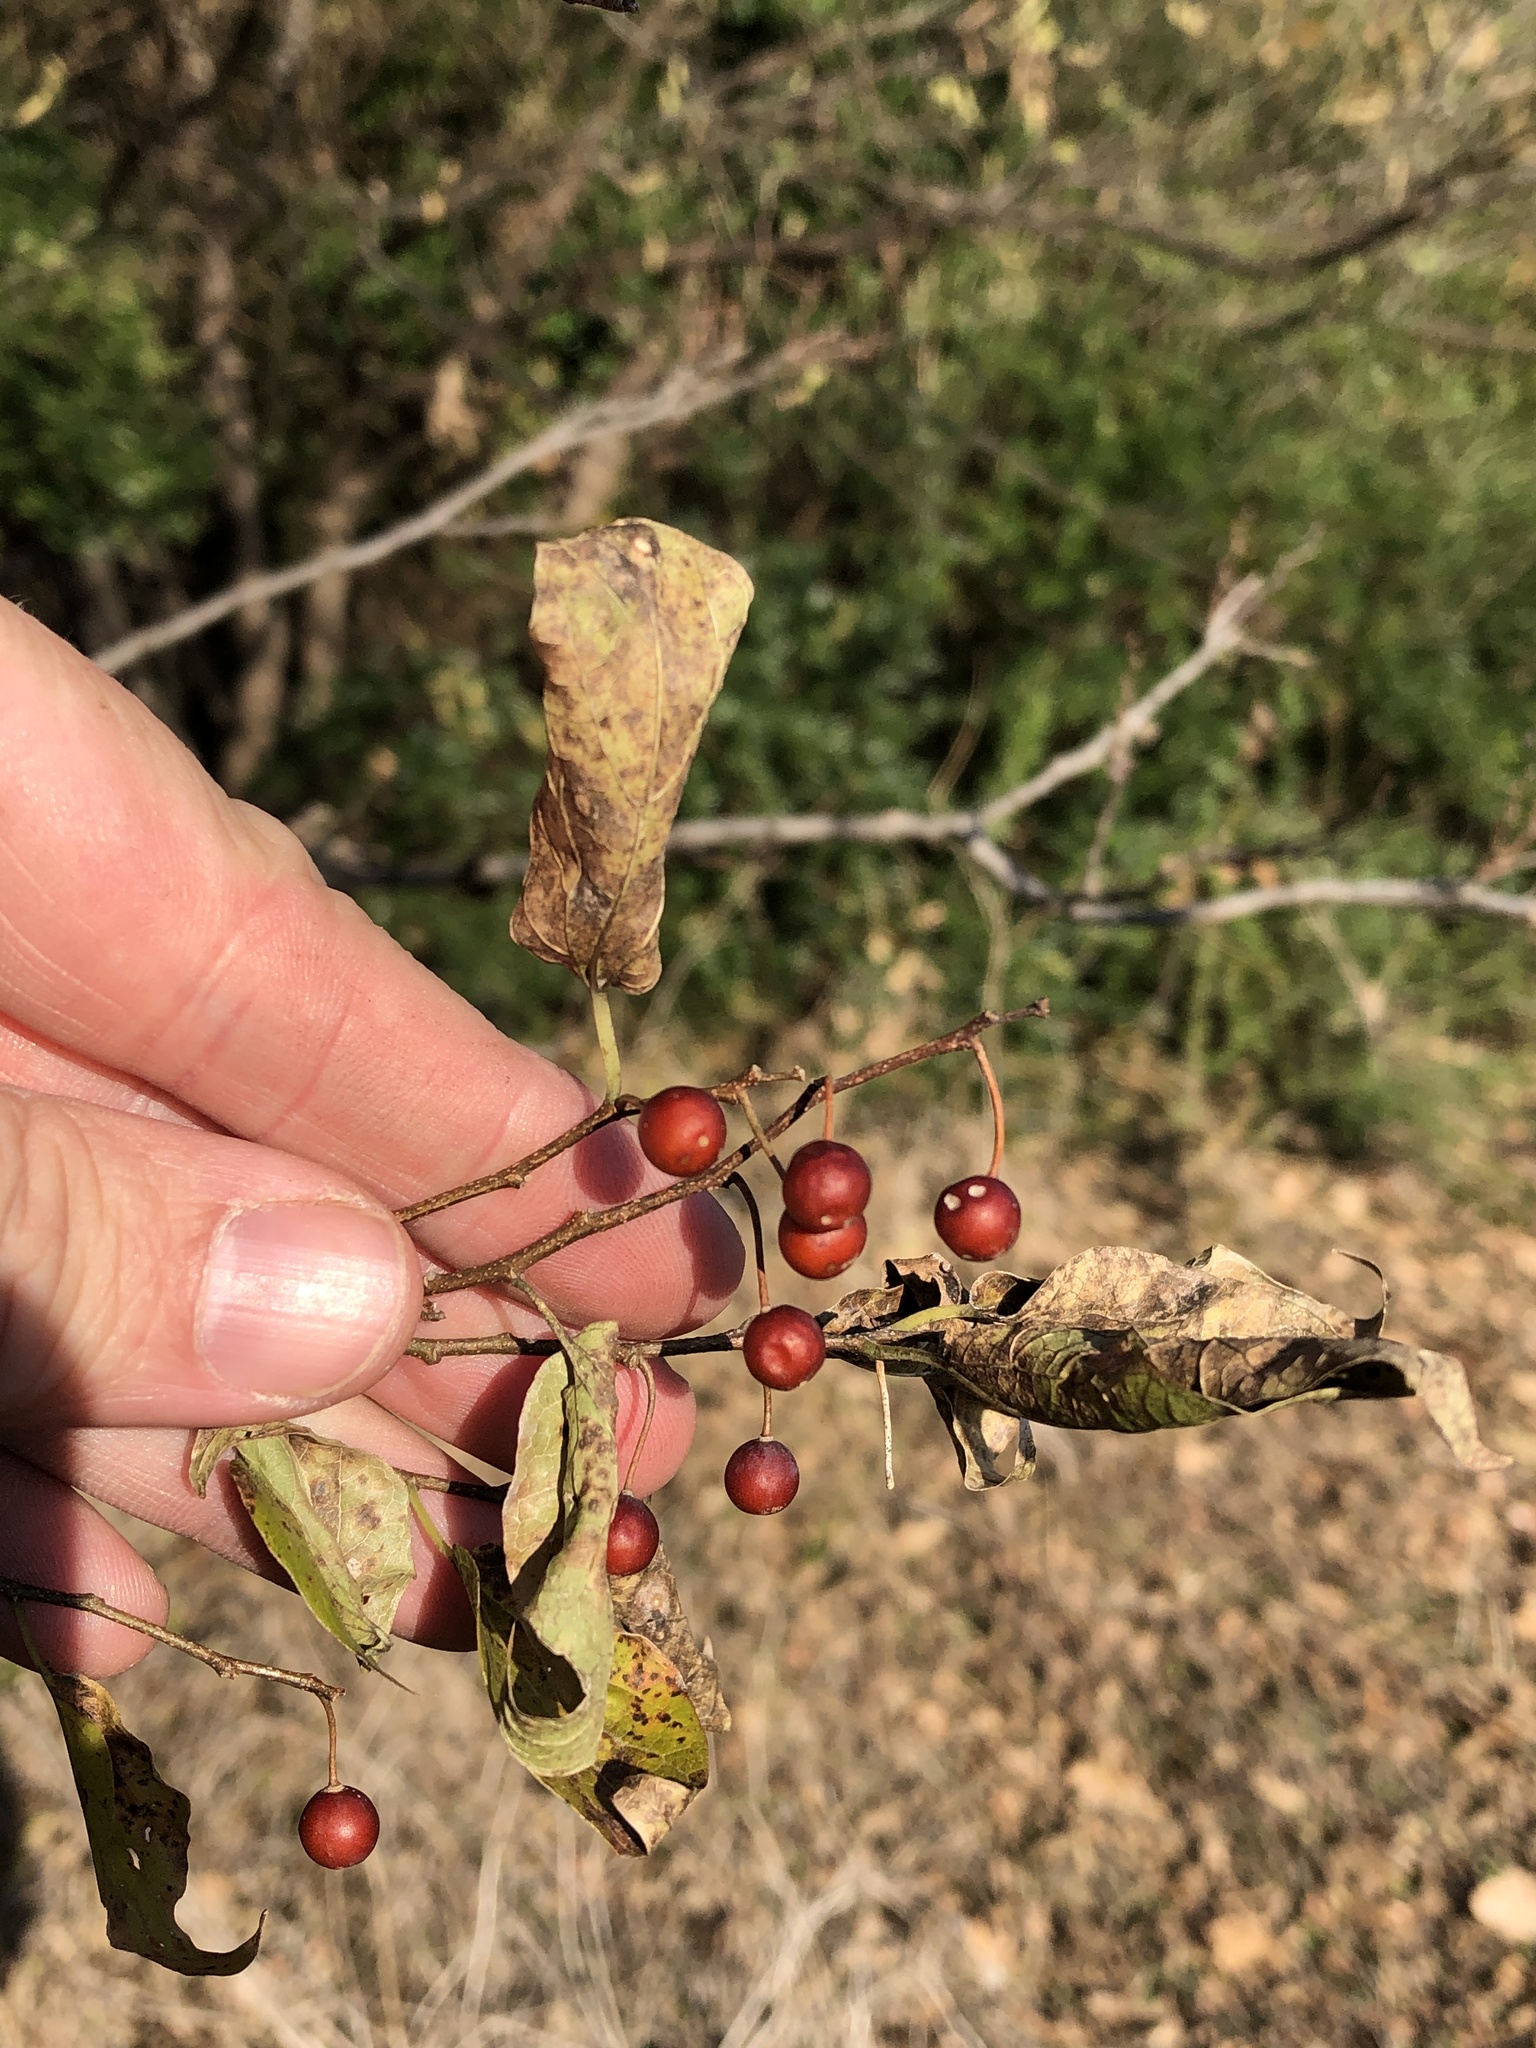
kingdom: Plantae
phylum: Tracheophyta
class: Magnoliopsida
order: Rosales
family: Cannabaceae
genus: Celtis
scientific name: Celtis laevigata
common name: Sugarberry
